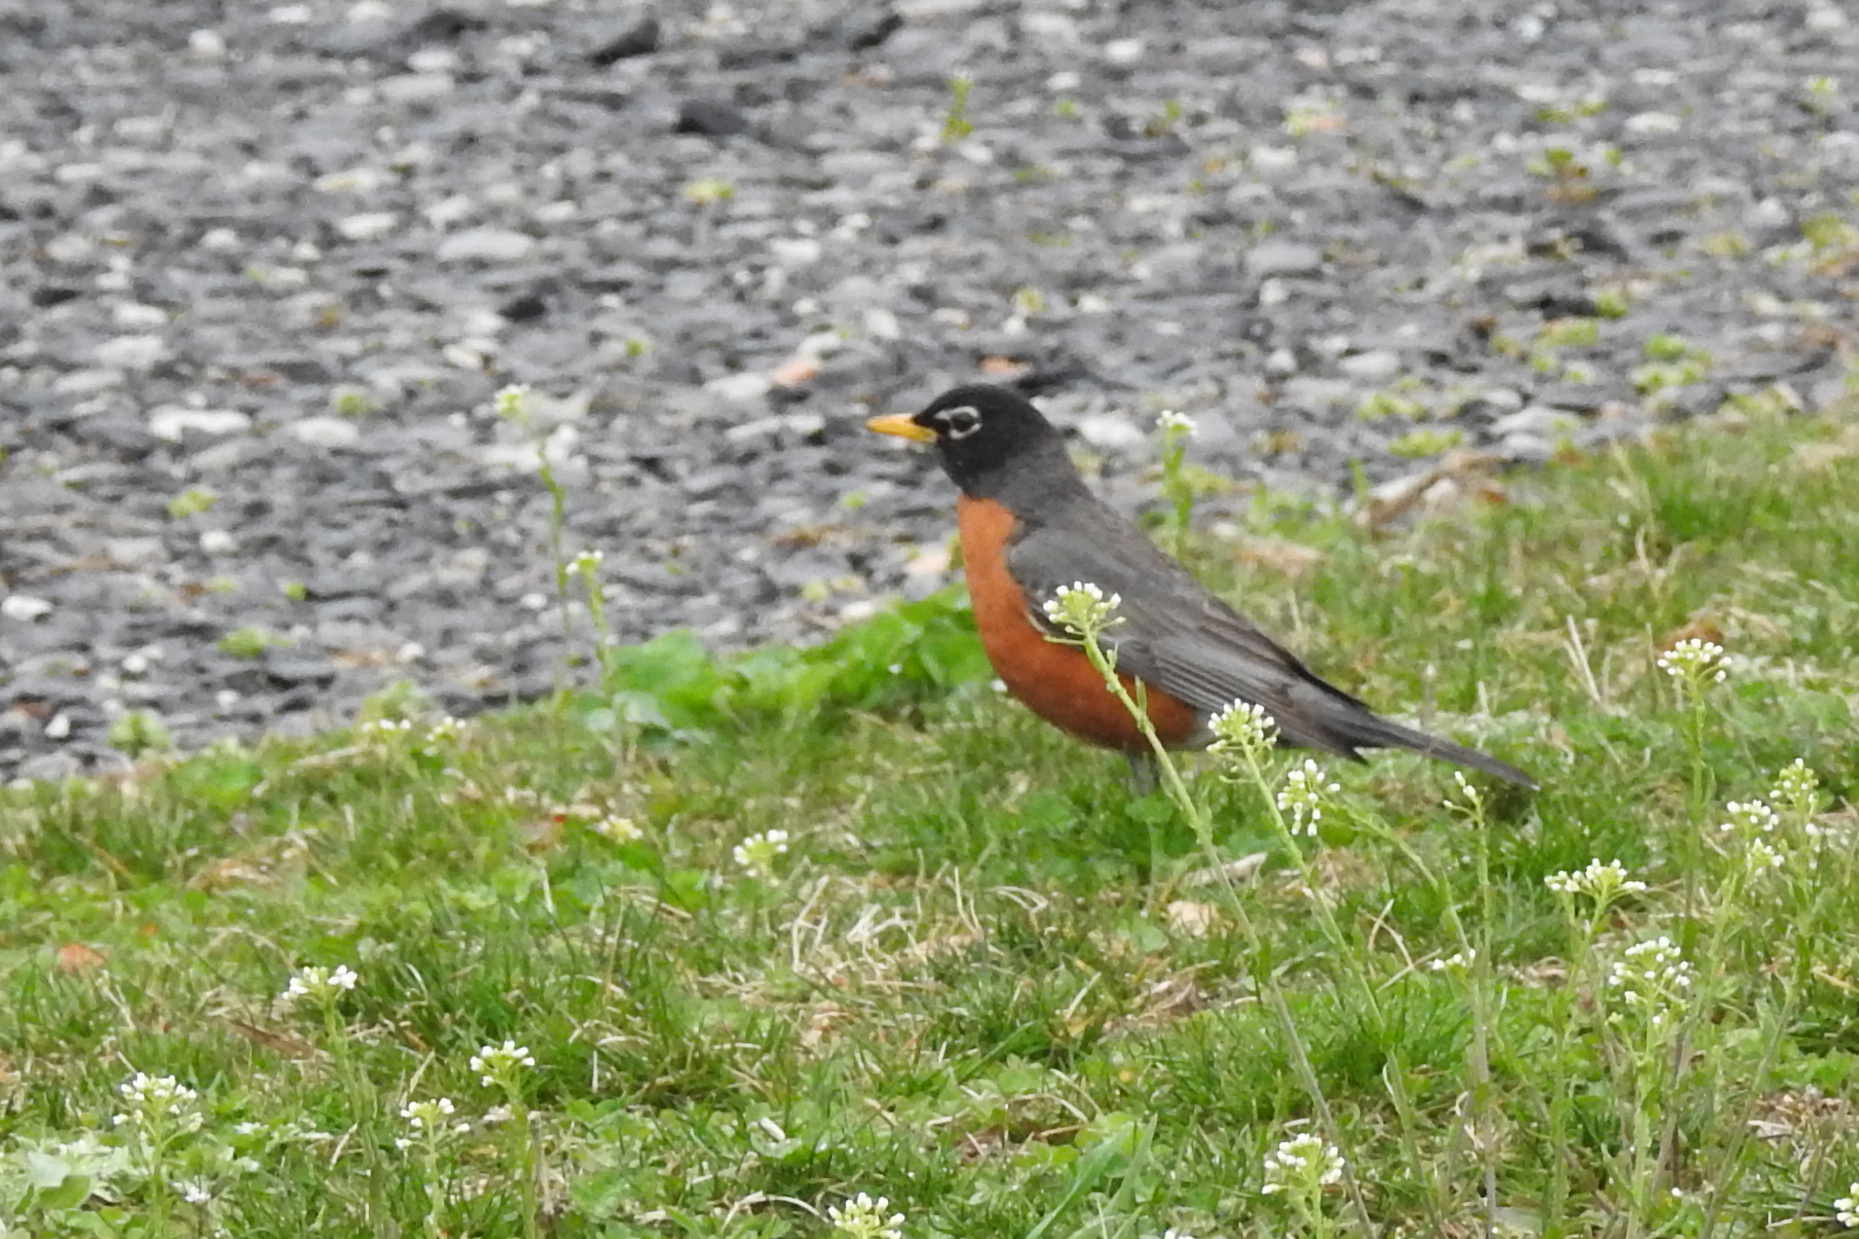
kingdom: Animalia
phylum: Chordata
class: Aves
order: Passeriformes
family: Turdidae
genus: Turdus
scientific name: Turdus migratorius
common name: American robin
